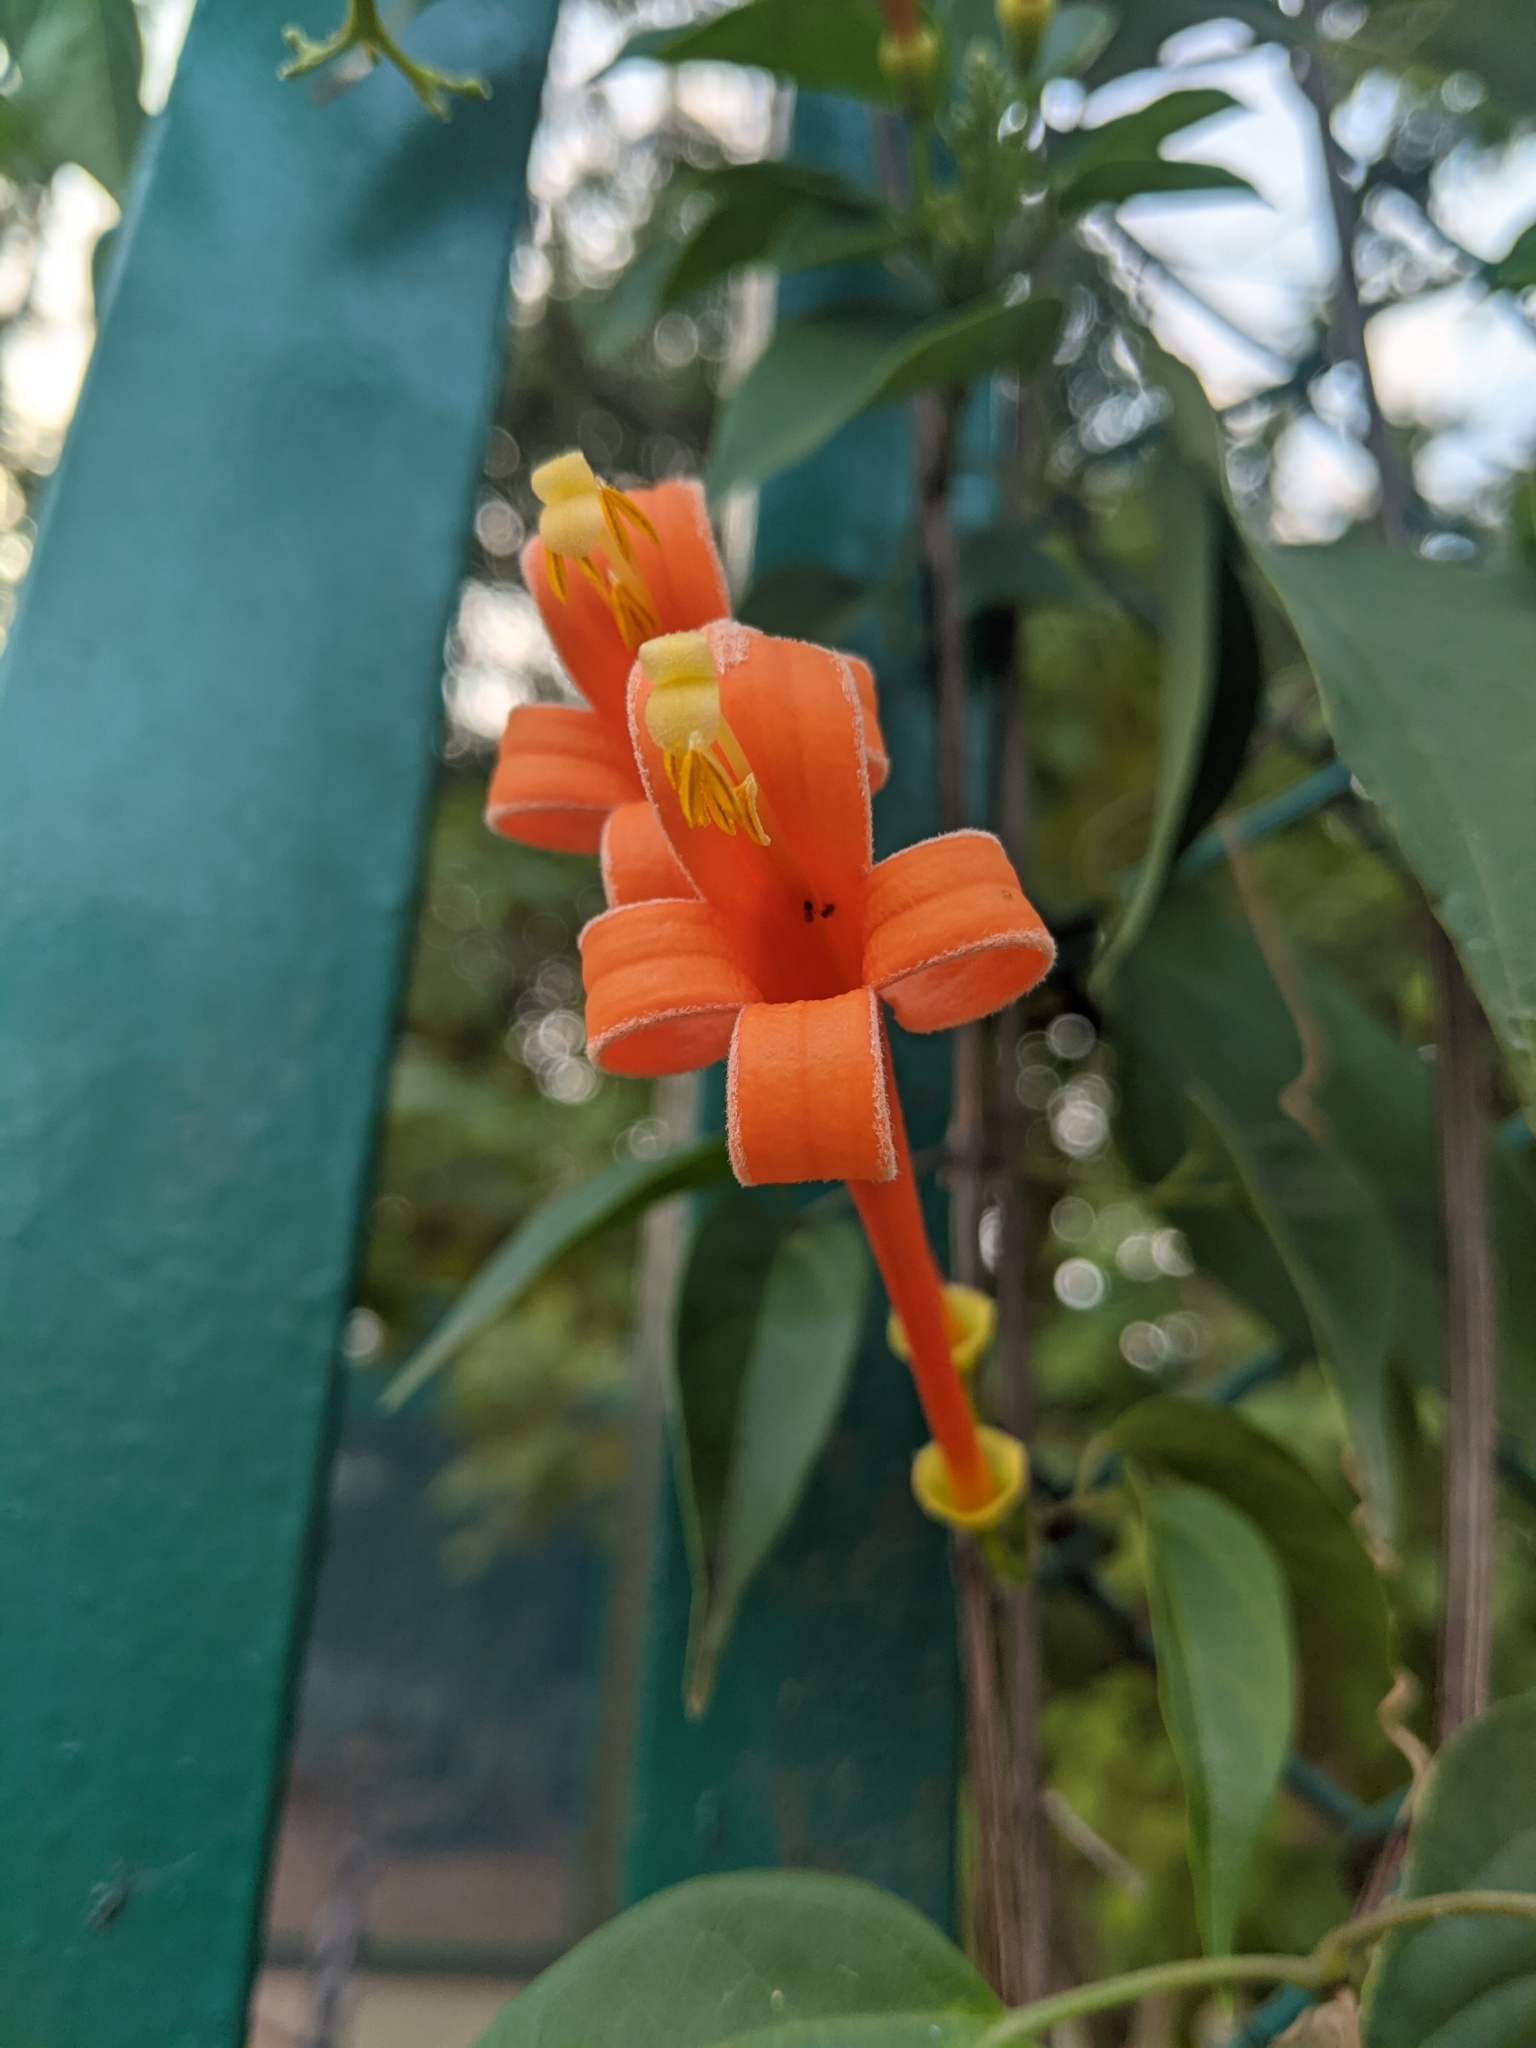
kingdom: Plantae
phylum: Tracheophyta
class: Magnoliopsida
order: Lamiales
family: Bignoniaceae
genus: Pyrostegia
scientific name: Pyrostegia venusta
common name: Flamevine
